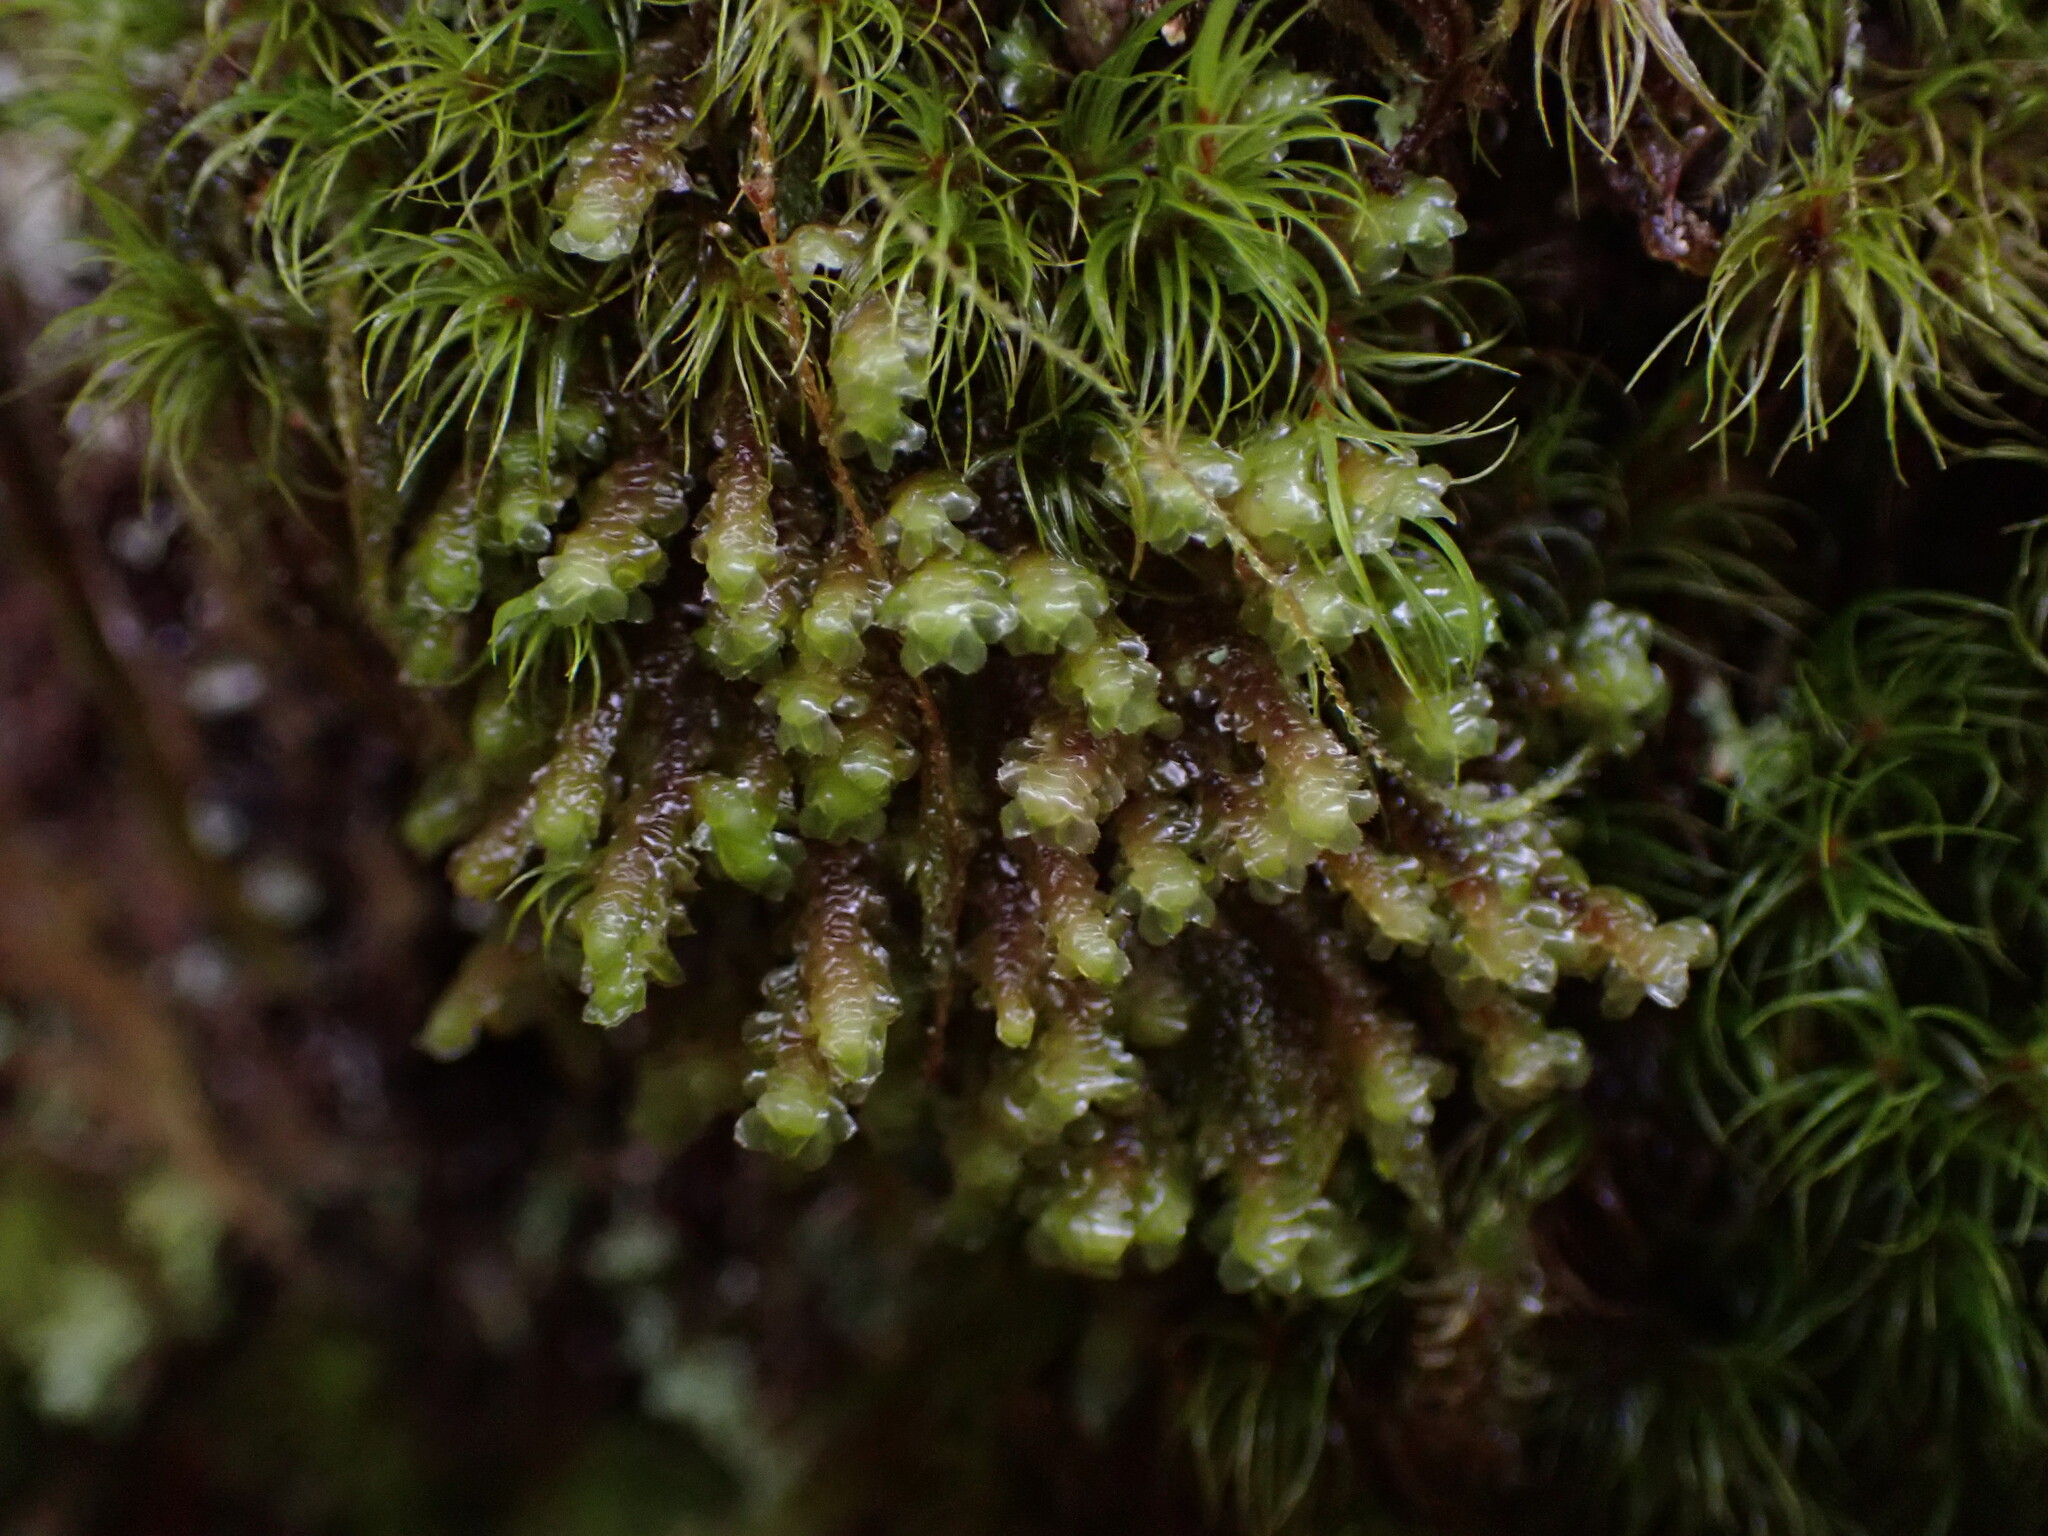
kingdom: Plantae
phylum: Marchantiophyta
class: Jungermanniopsida
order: Jungermanniales
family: Scapaniaceae
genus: Scapania
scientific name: Scapania bolanderi
